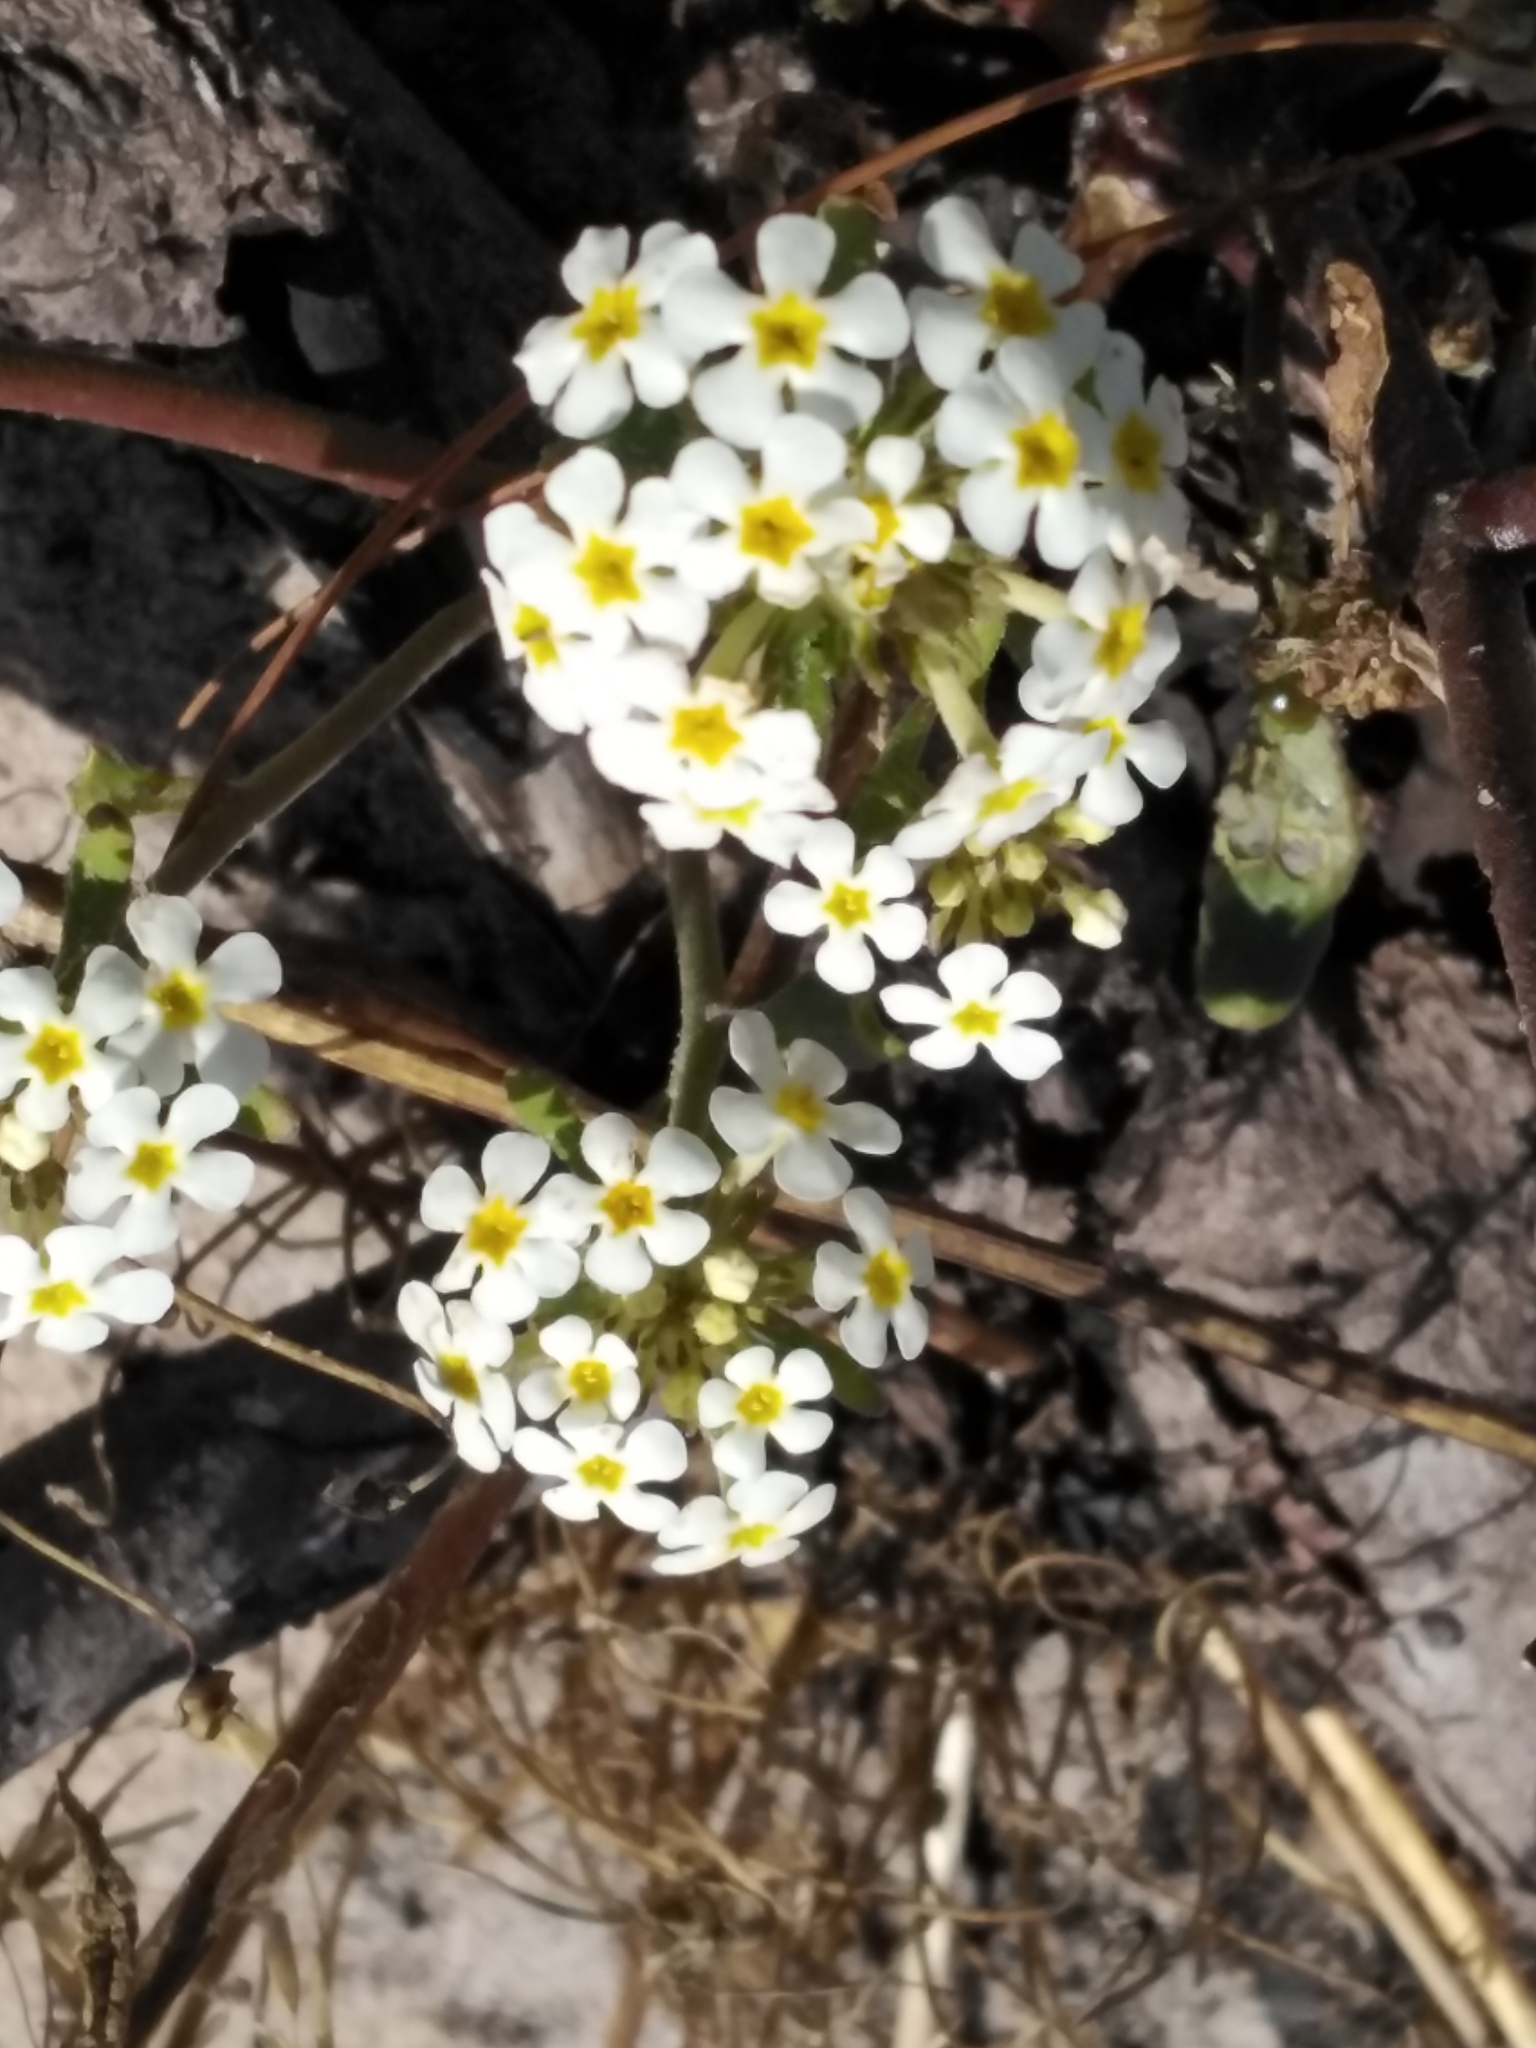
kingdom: Plantae
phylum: Tracheophyta
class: Magnoliopsida
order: Lamiales
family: Scrophulariaceae
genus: Manulea
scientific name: Manulea corymbosa
